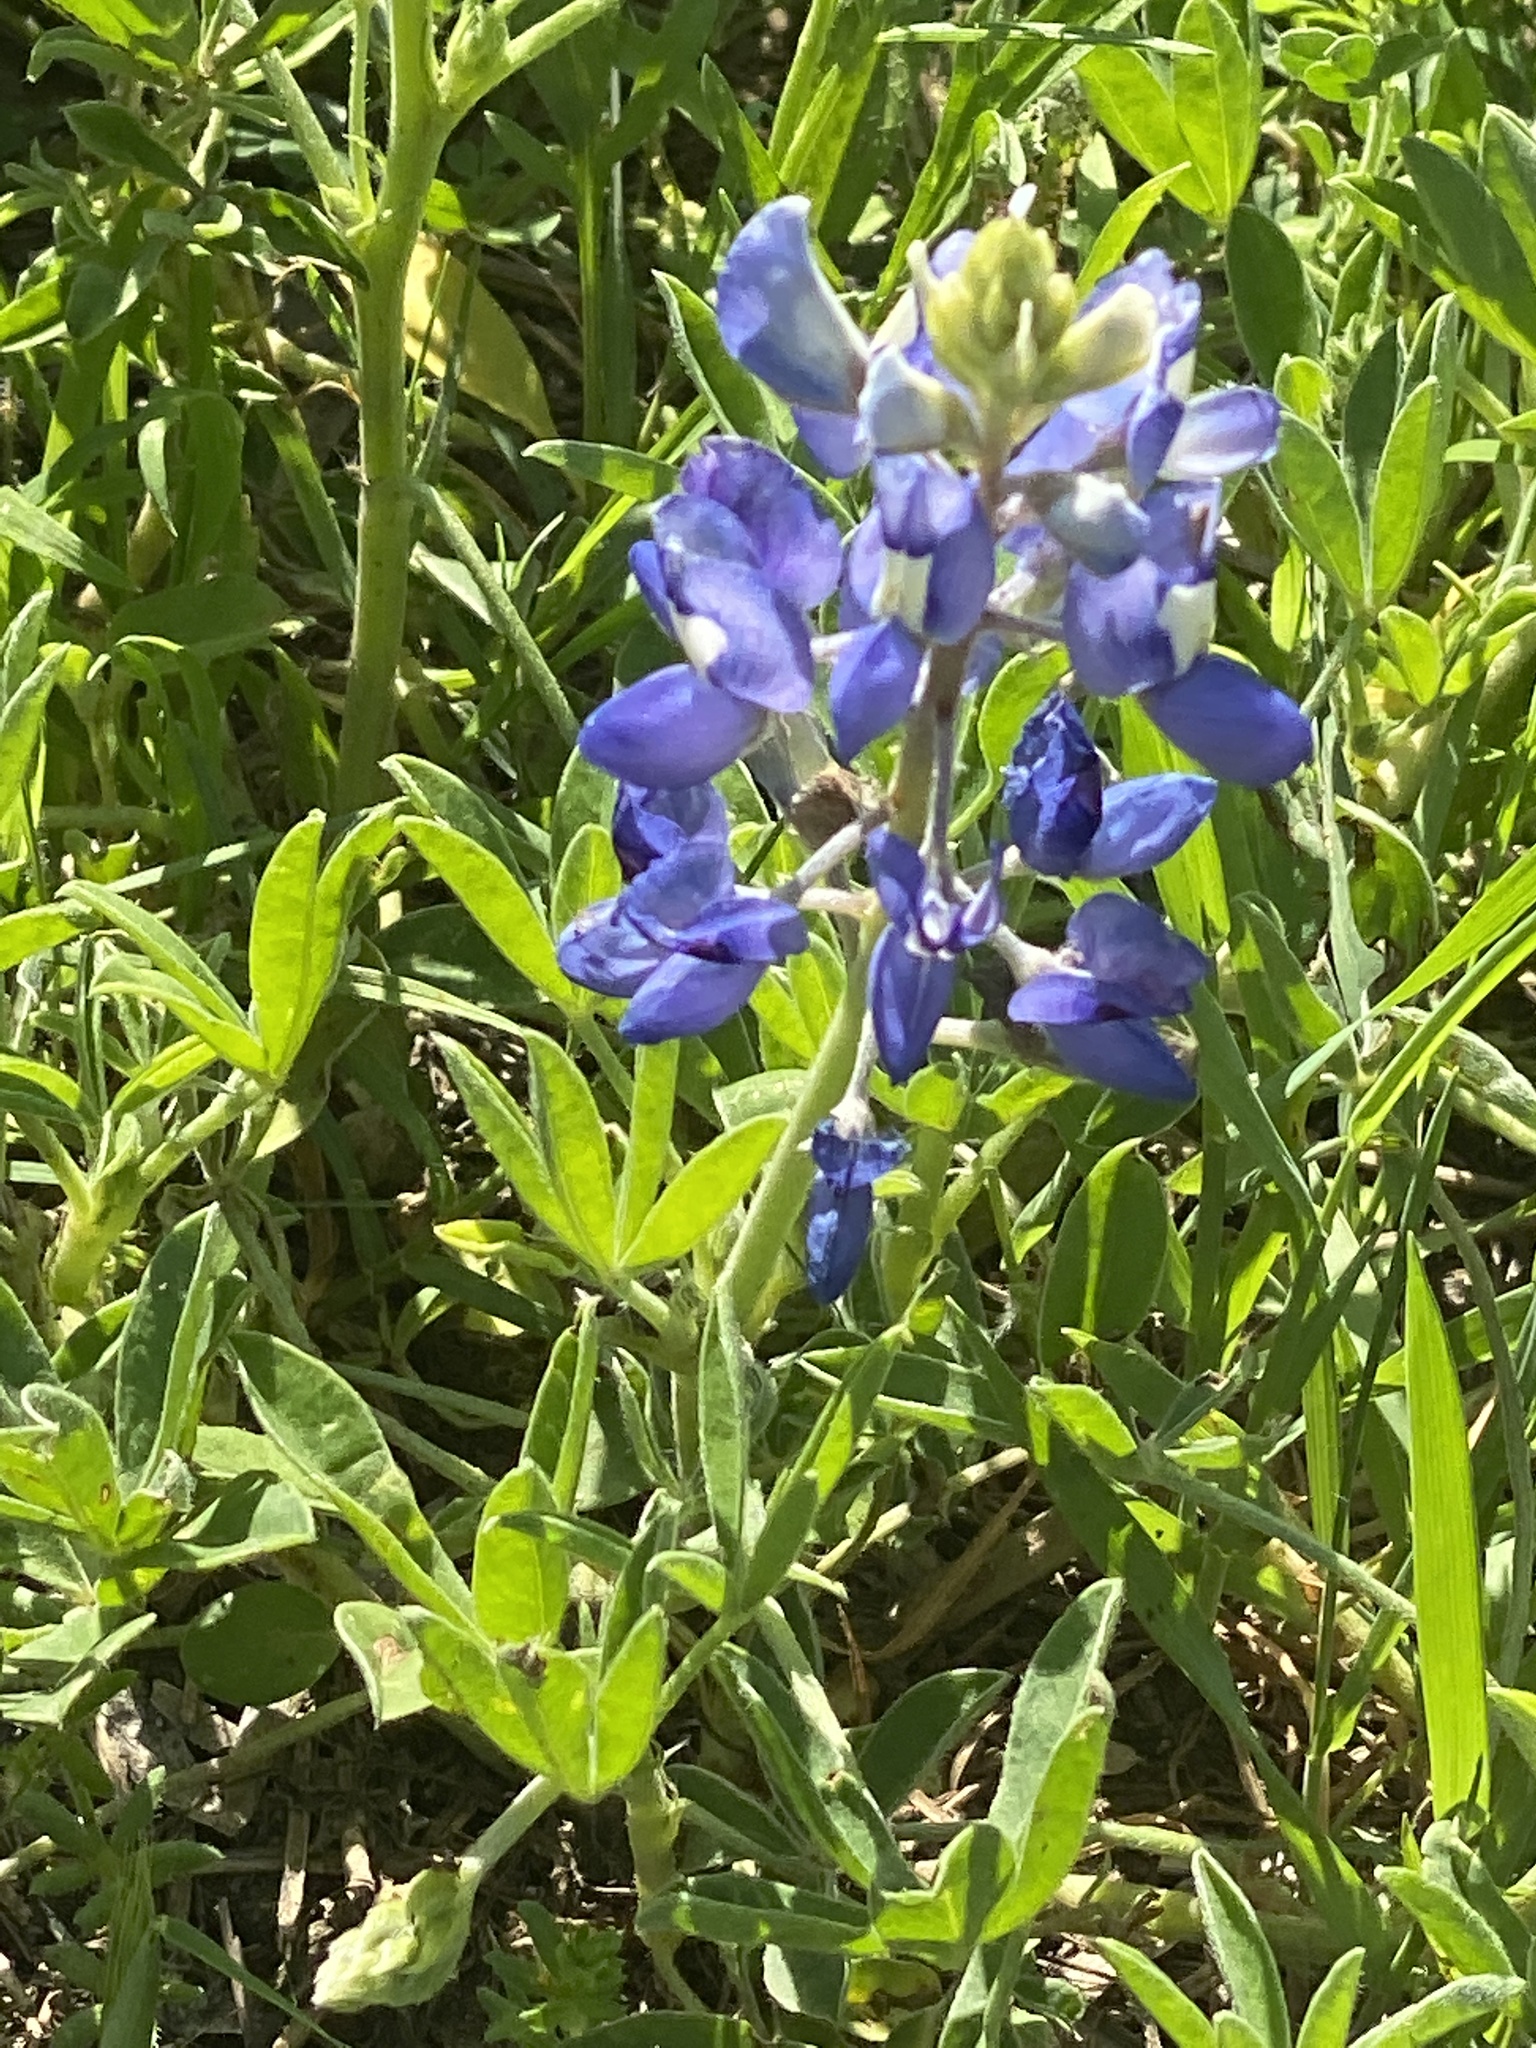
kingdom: Plantae
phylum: Tracheophyta
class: Magnoliopsida
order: Fabales
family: Fabaceae
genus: Lupinus
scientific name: Lupinus texensis
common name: Texas bluebonnet
